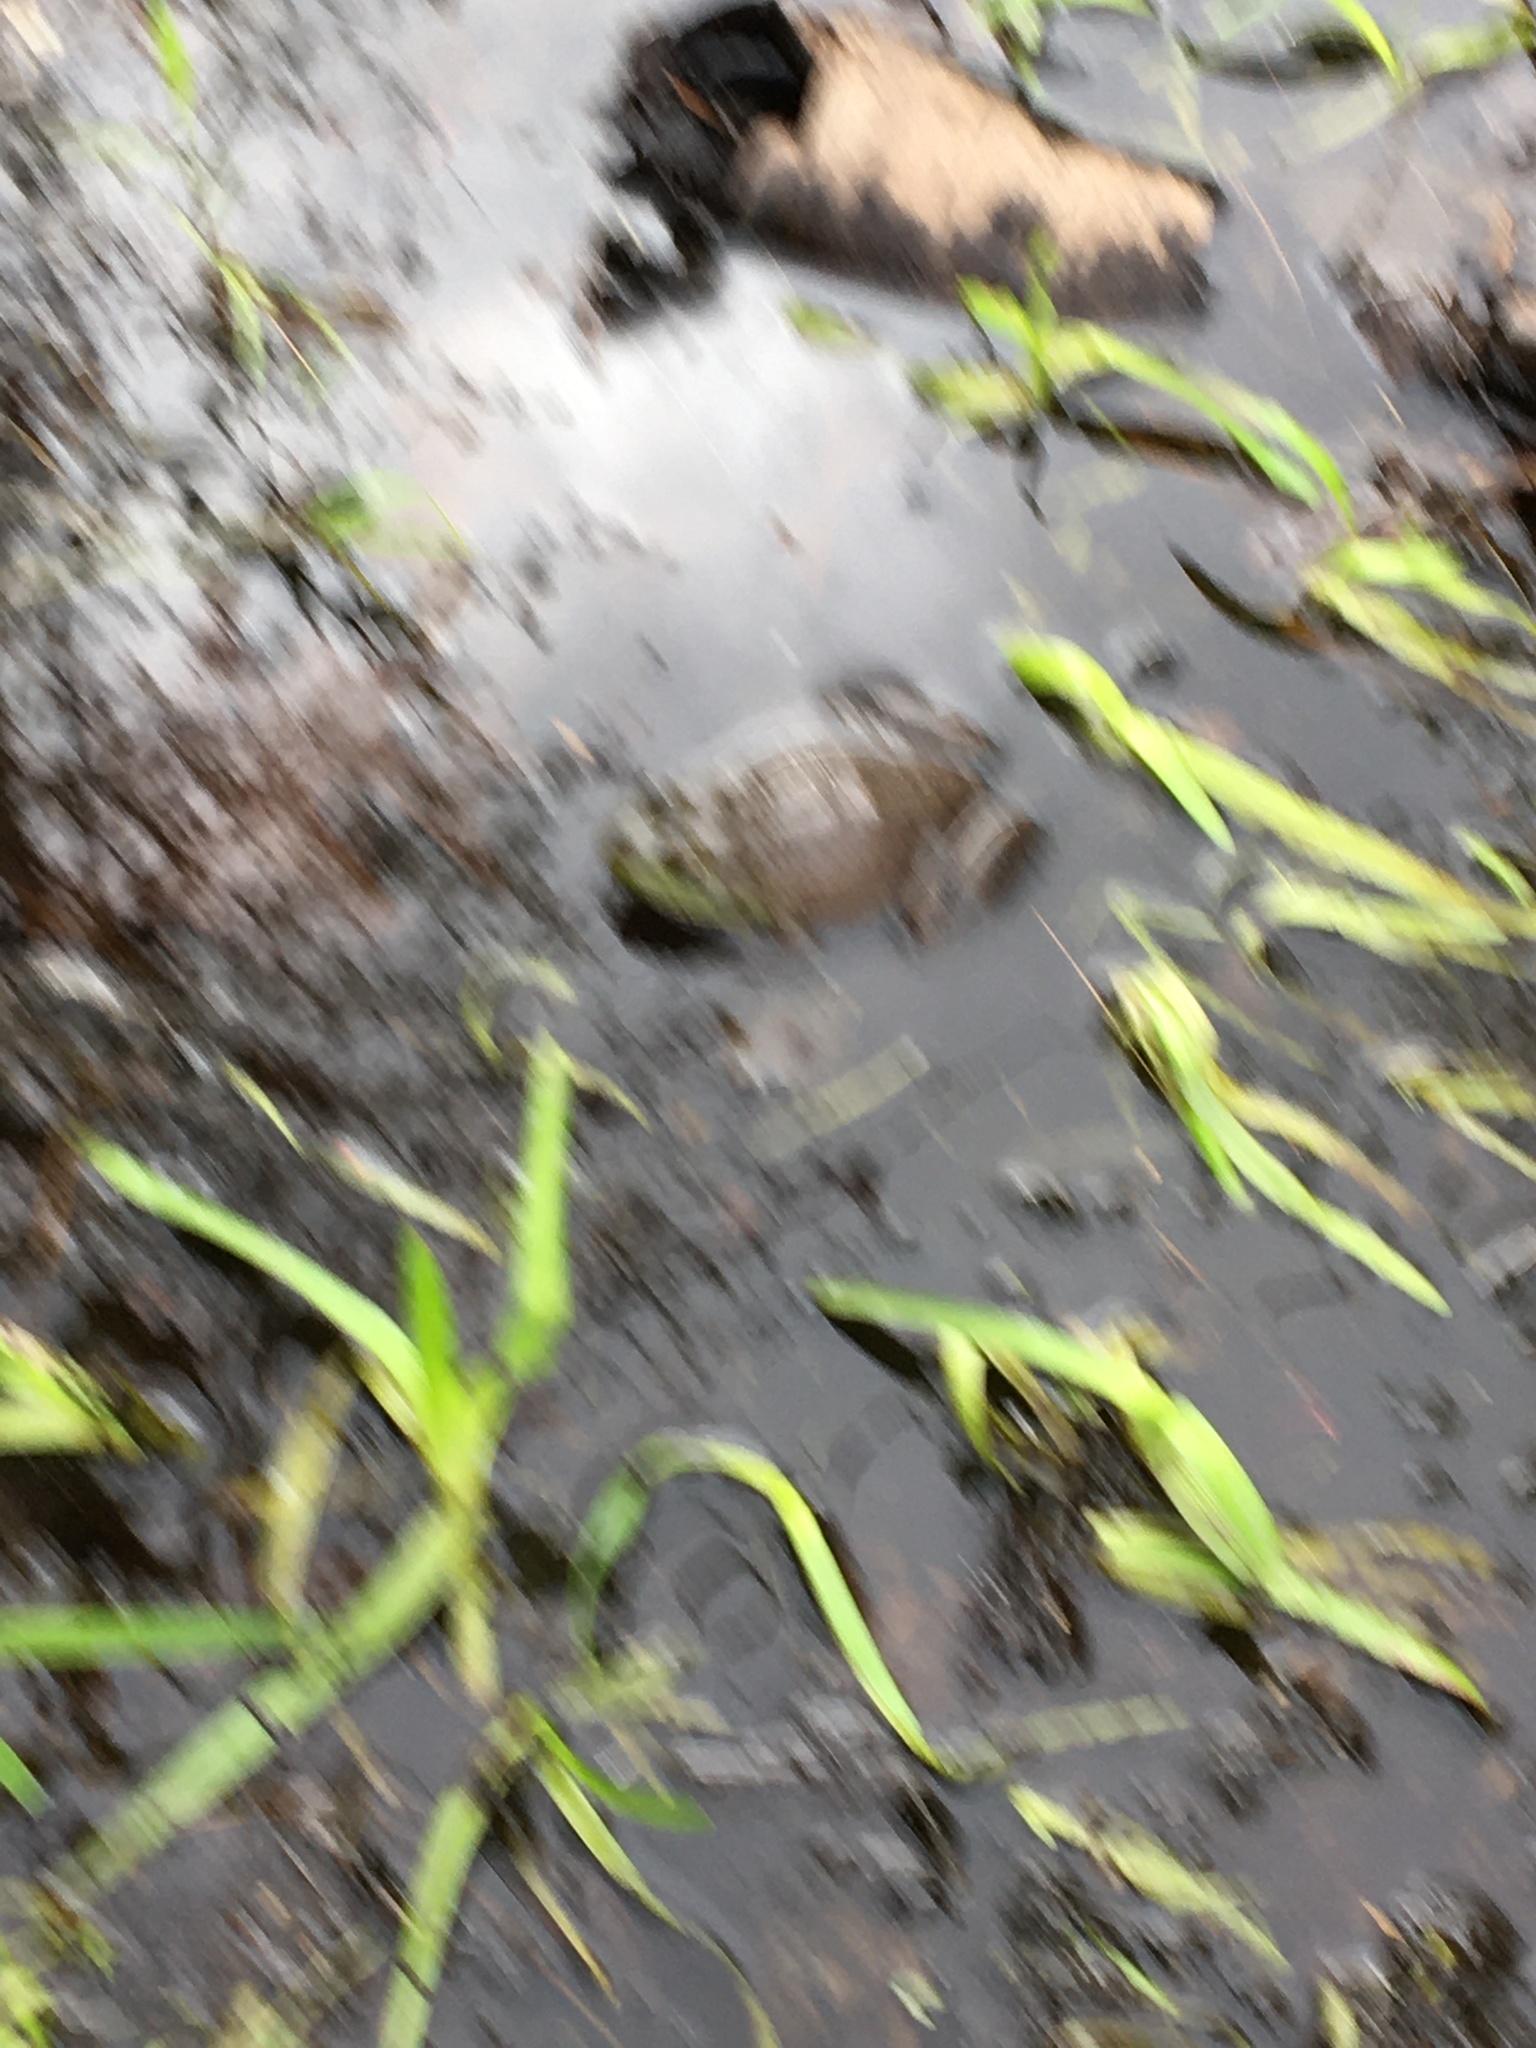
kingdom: Animalia
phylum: Chordata
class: Amphibia
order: Anura
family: Ranidae
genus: Lithobates
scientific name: Lithobates catesbeianus
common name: American bullfrog
